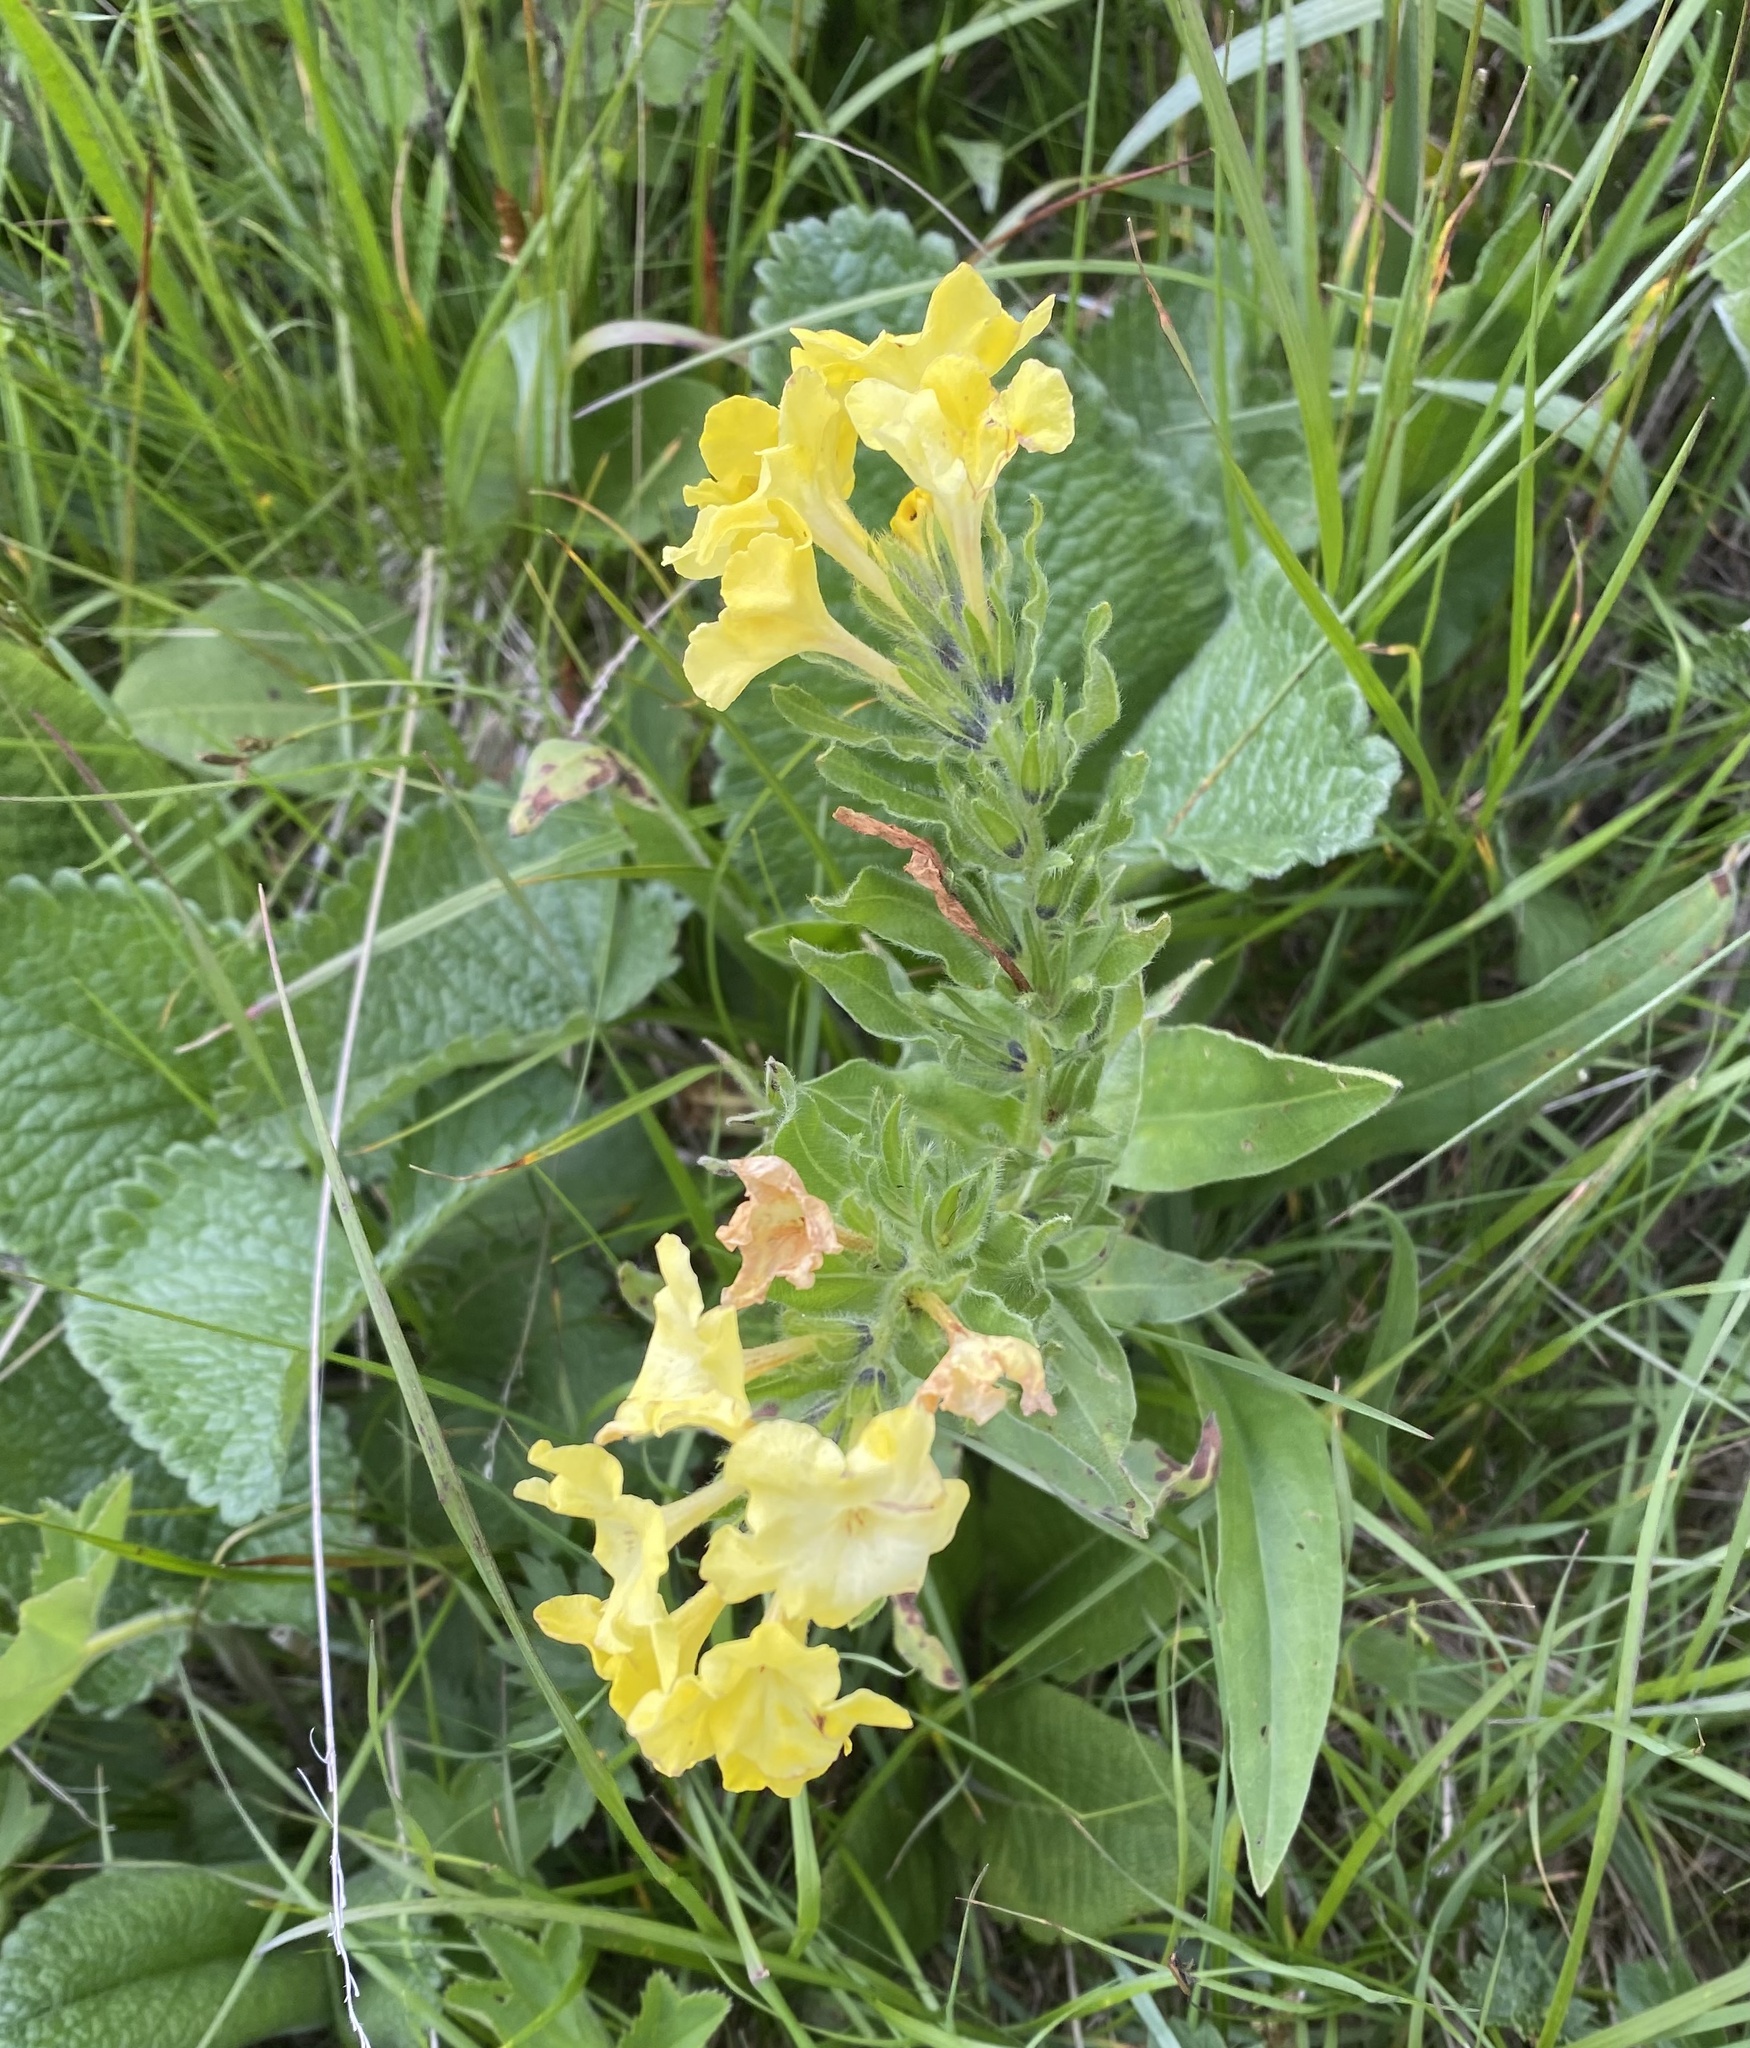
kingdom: Plantae
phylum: Tracheophyta
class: Magnoliopsida
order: Boraginales
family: Boraginaceae
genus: Huynhia
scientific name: Huynhia pulchra
